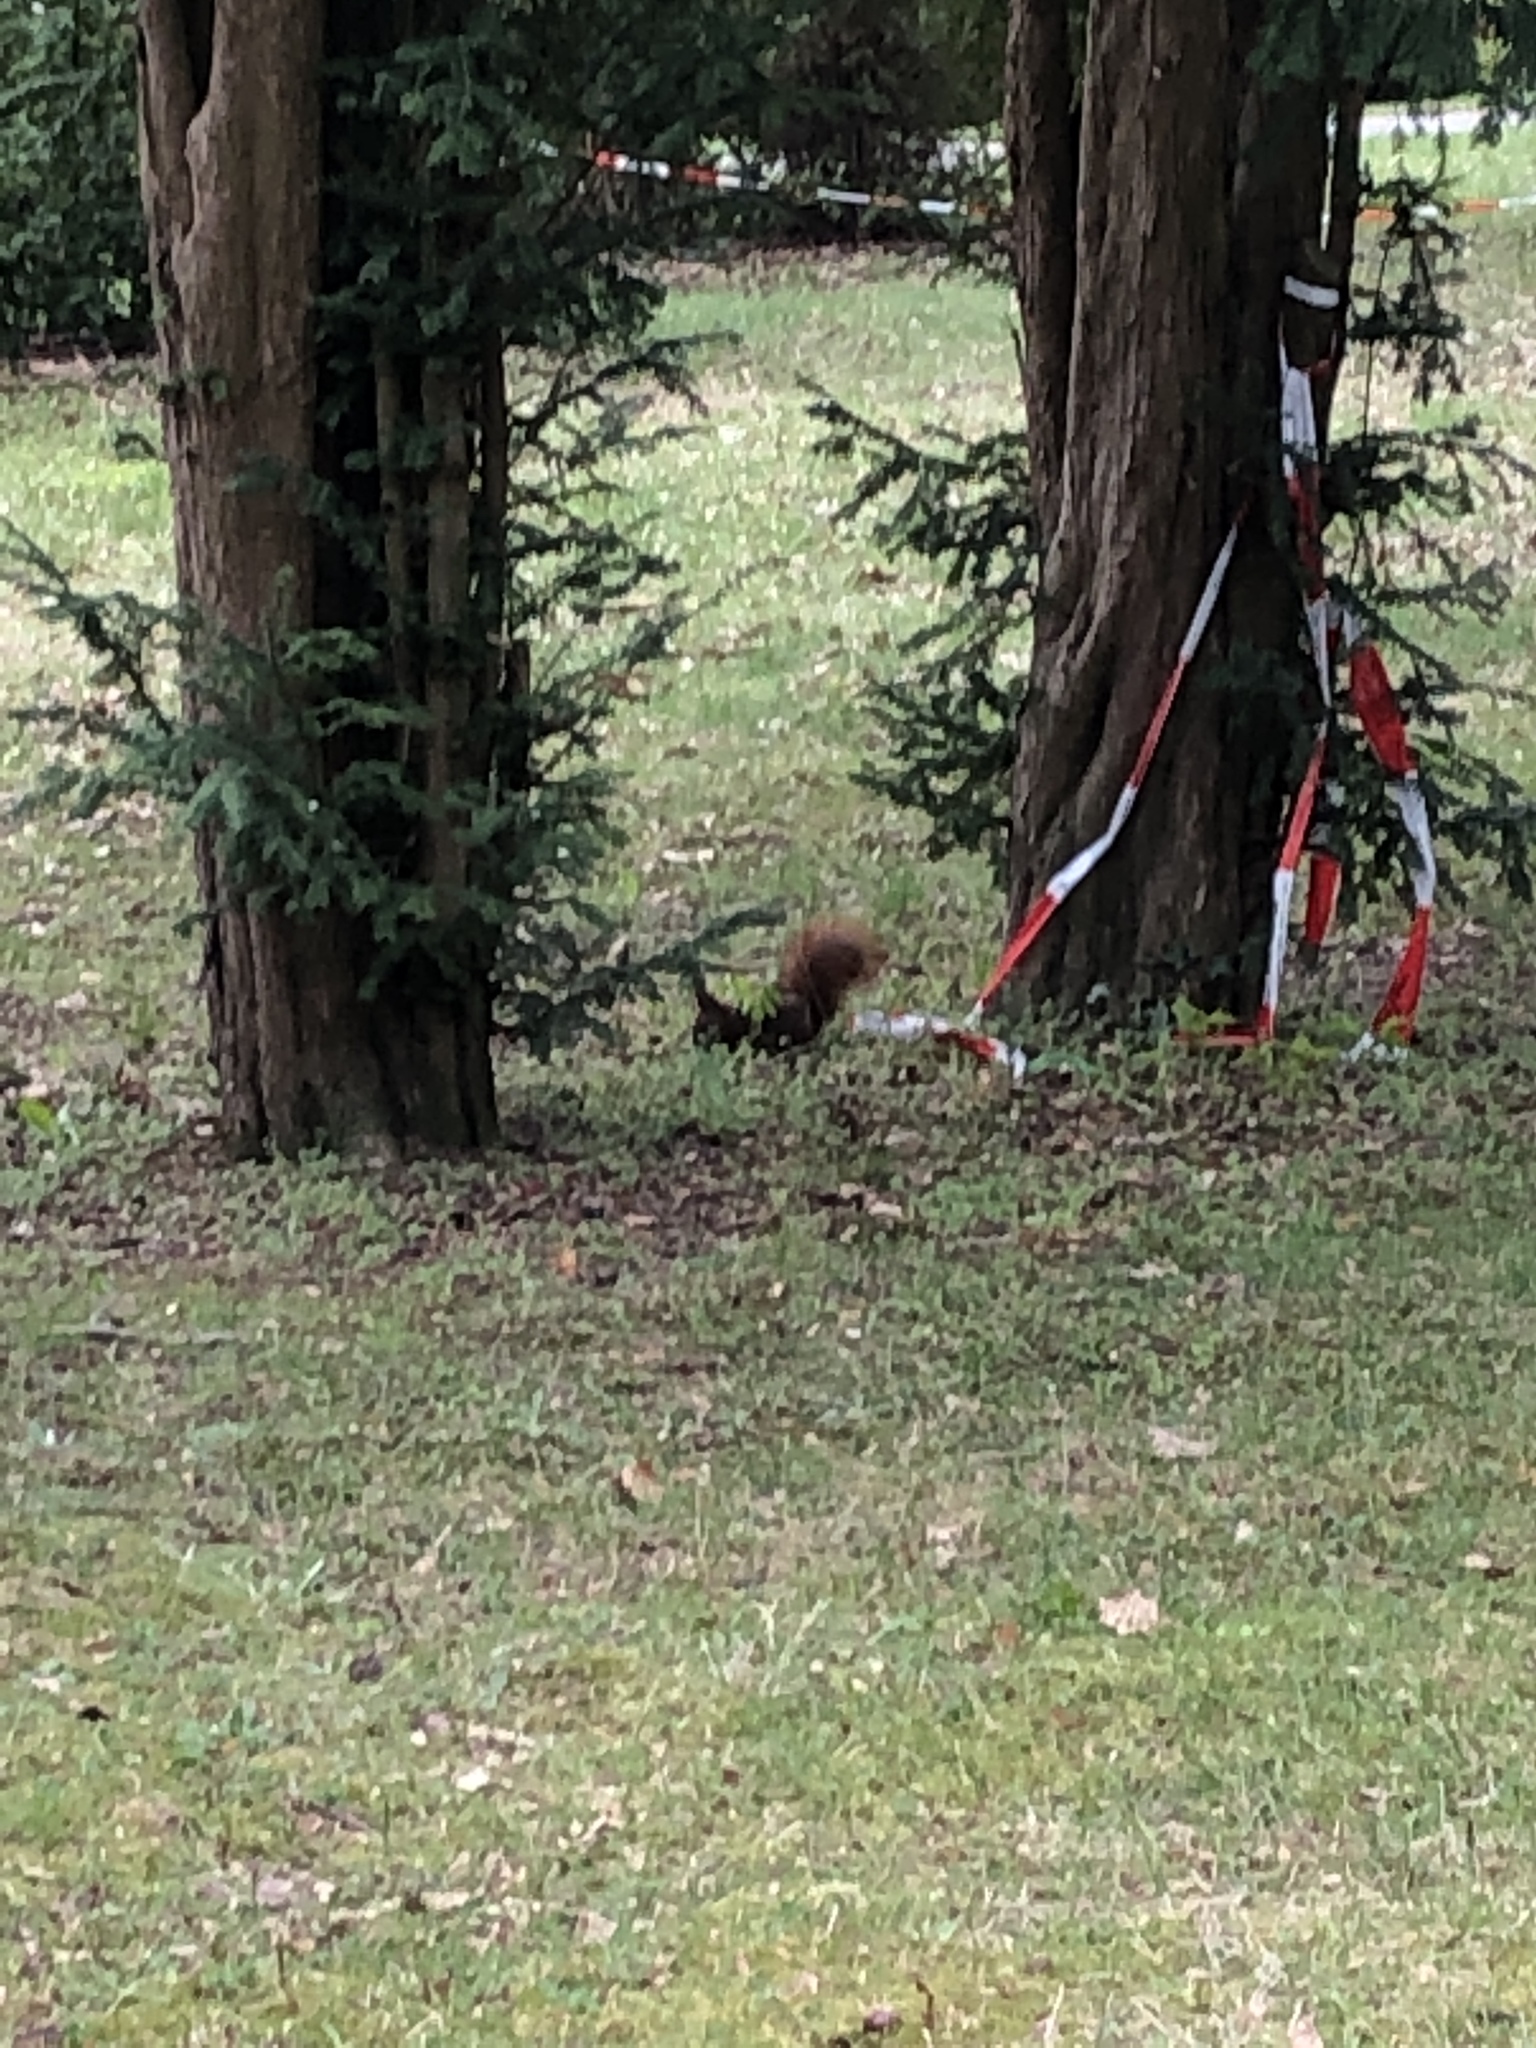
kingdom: Animalia
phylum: Chordata
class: Mammalia
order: Rodentia
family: Sciuridae
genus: Sciurus
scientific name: Sciurus vulgaris
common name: Eurasian red squirrel
